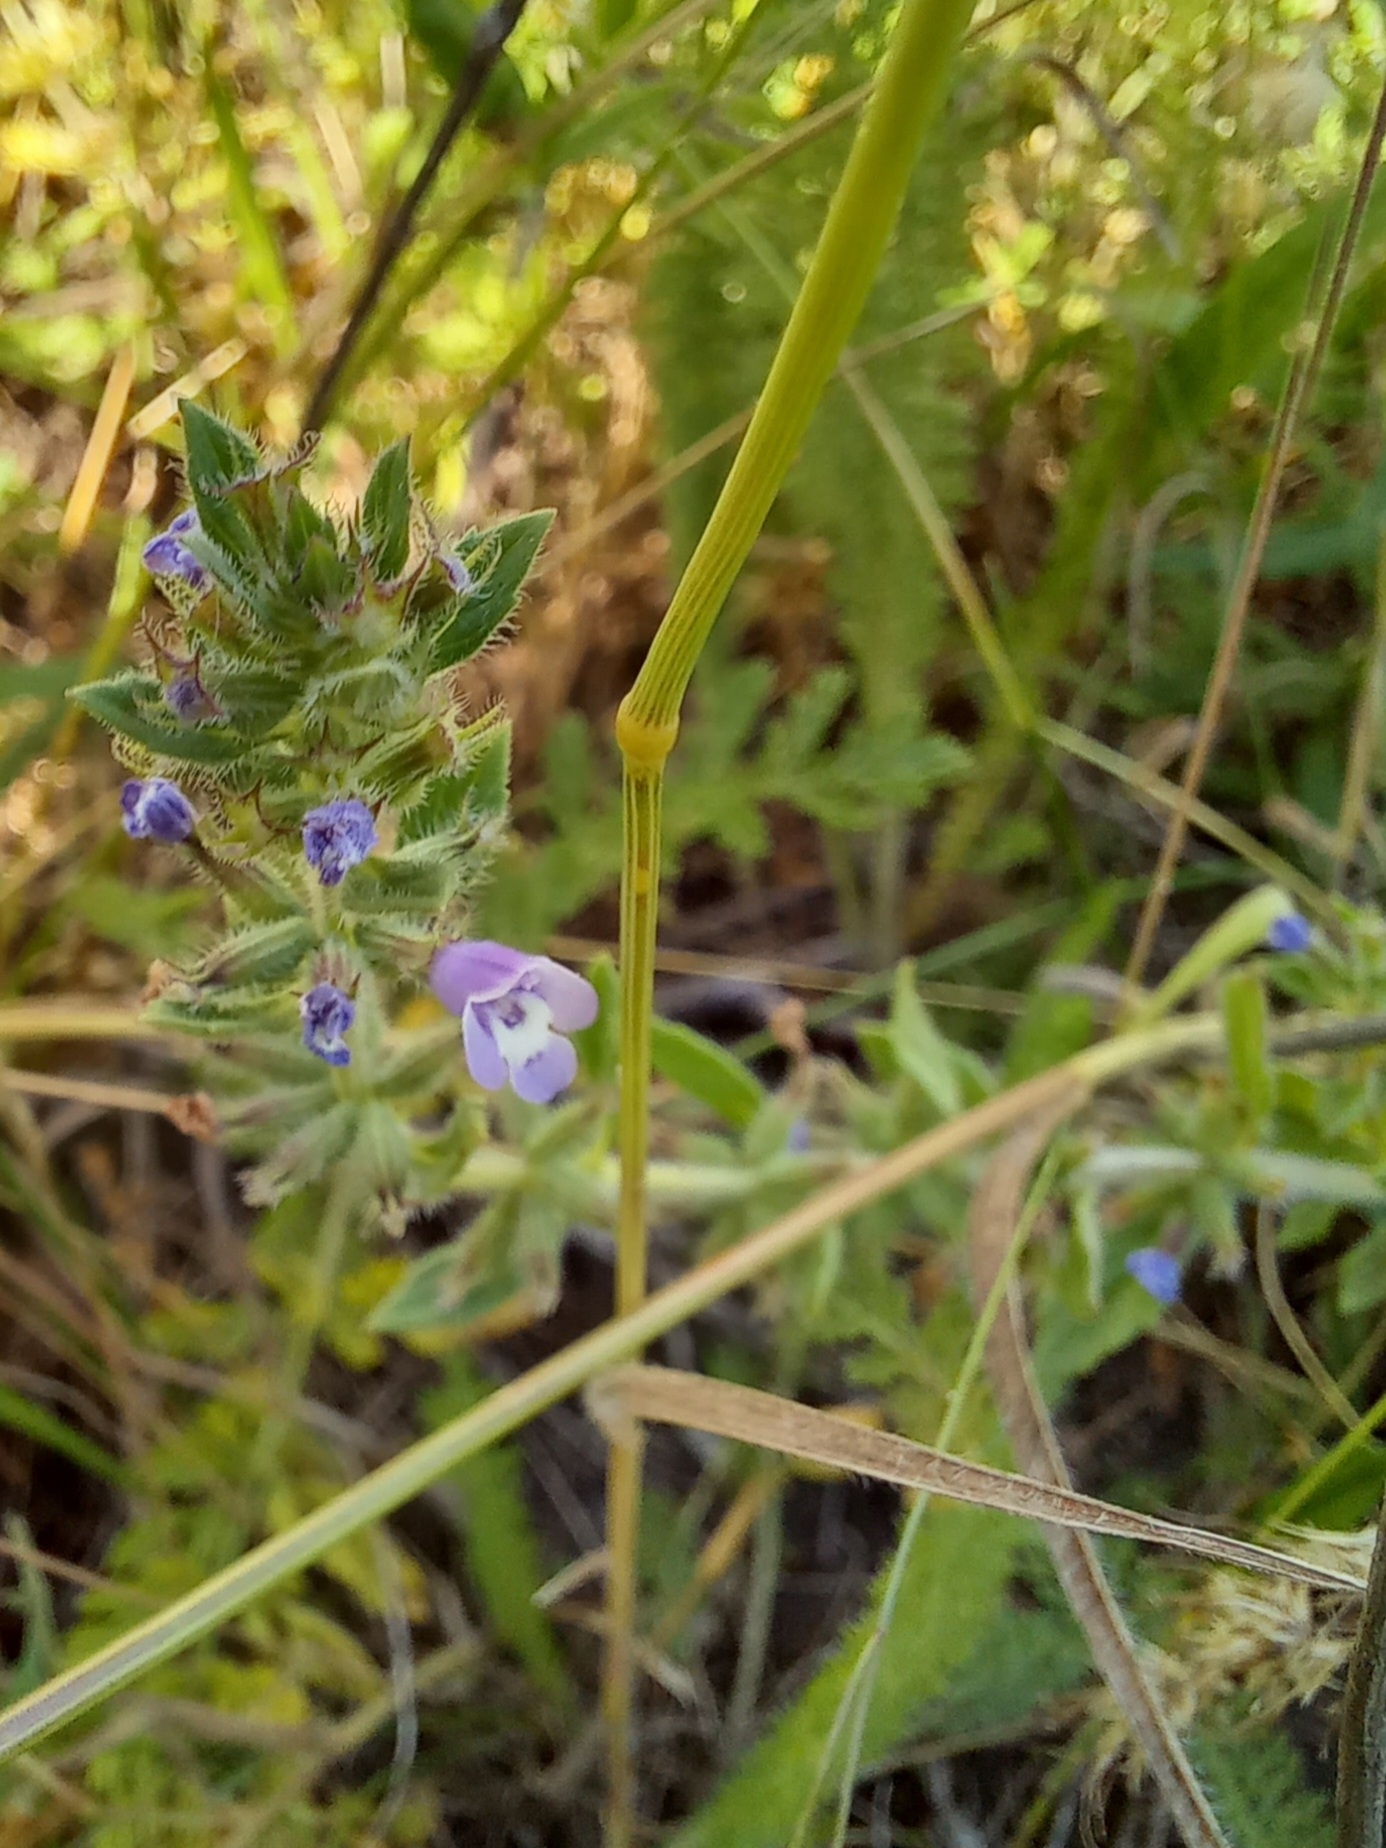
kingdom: Plantae
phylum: Tracheophyta
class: Magnoliopsida
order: Lamiales
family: Lamiaceae
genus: Clinopodium
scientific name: Clinopodium acinos
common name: Basil thyme
